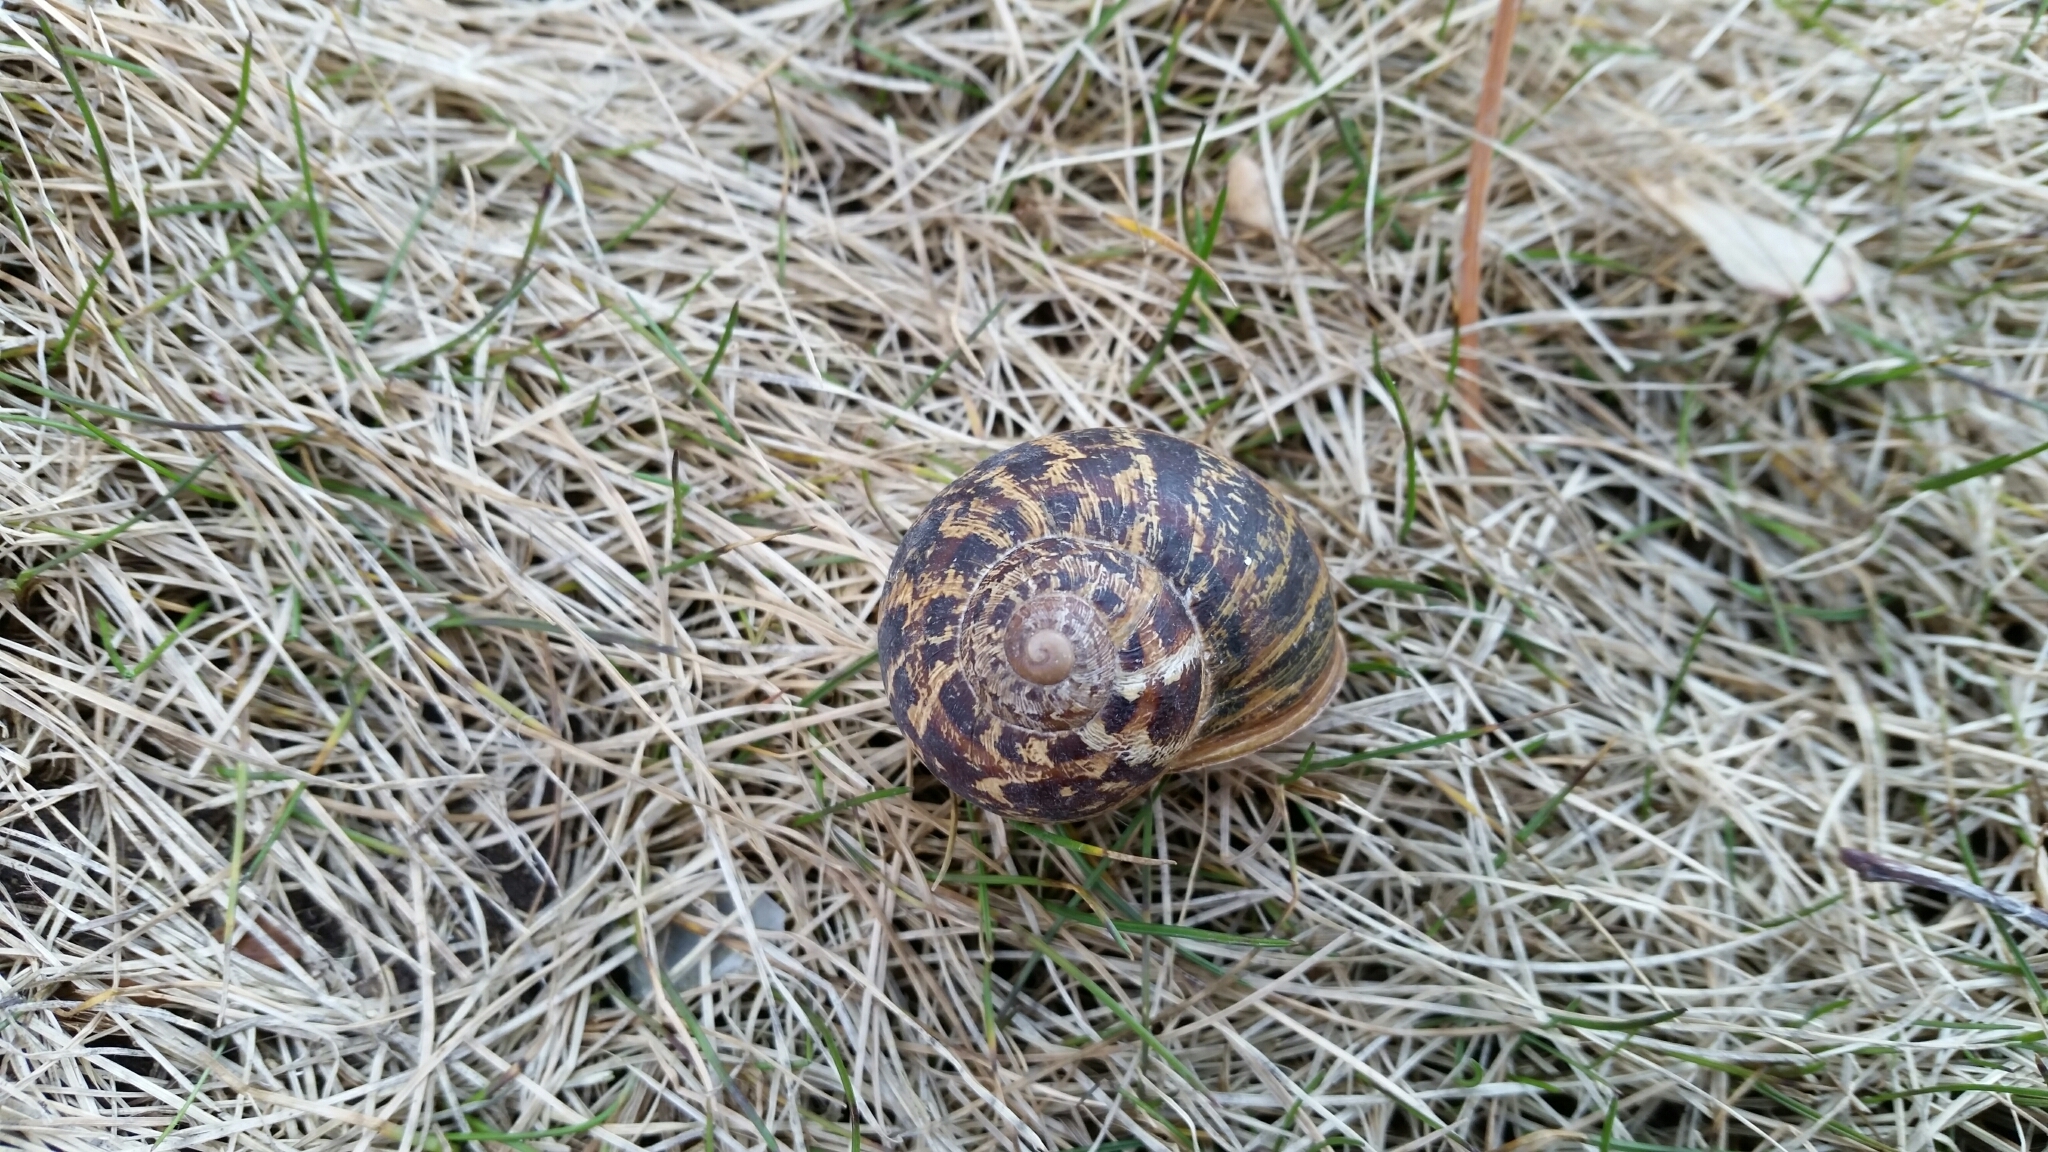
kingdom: Animalia
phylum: Mollusca
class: Gastropoda
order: Stylommatophora
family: Helicidae
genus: Cornu
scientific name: Cornu aspersum
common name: Brown garden snail
